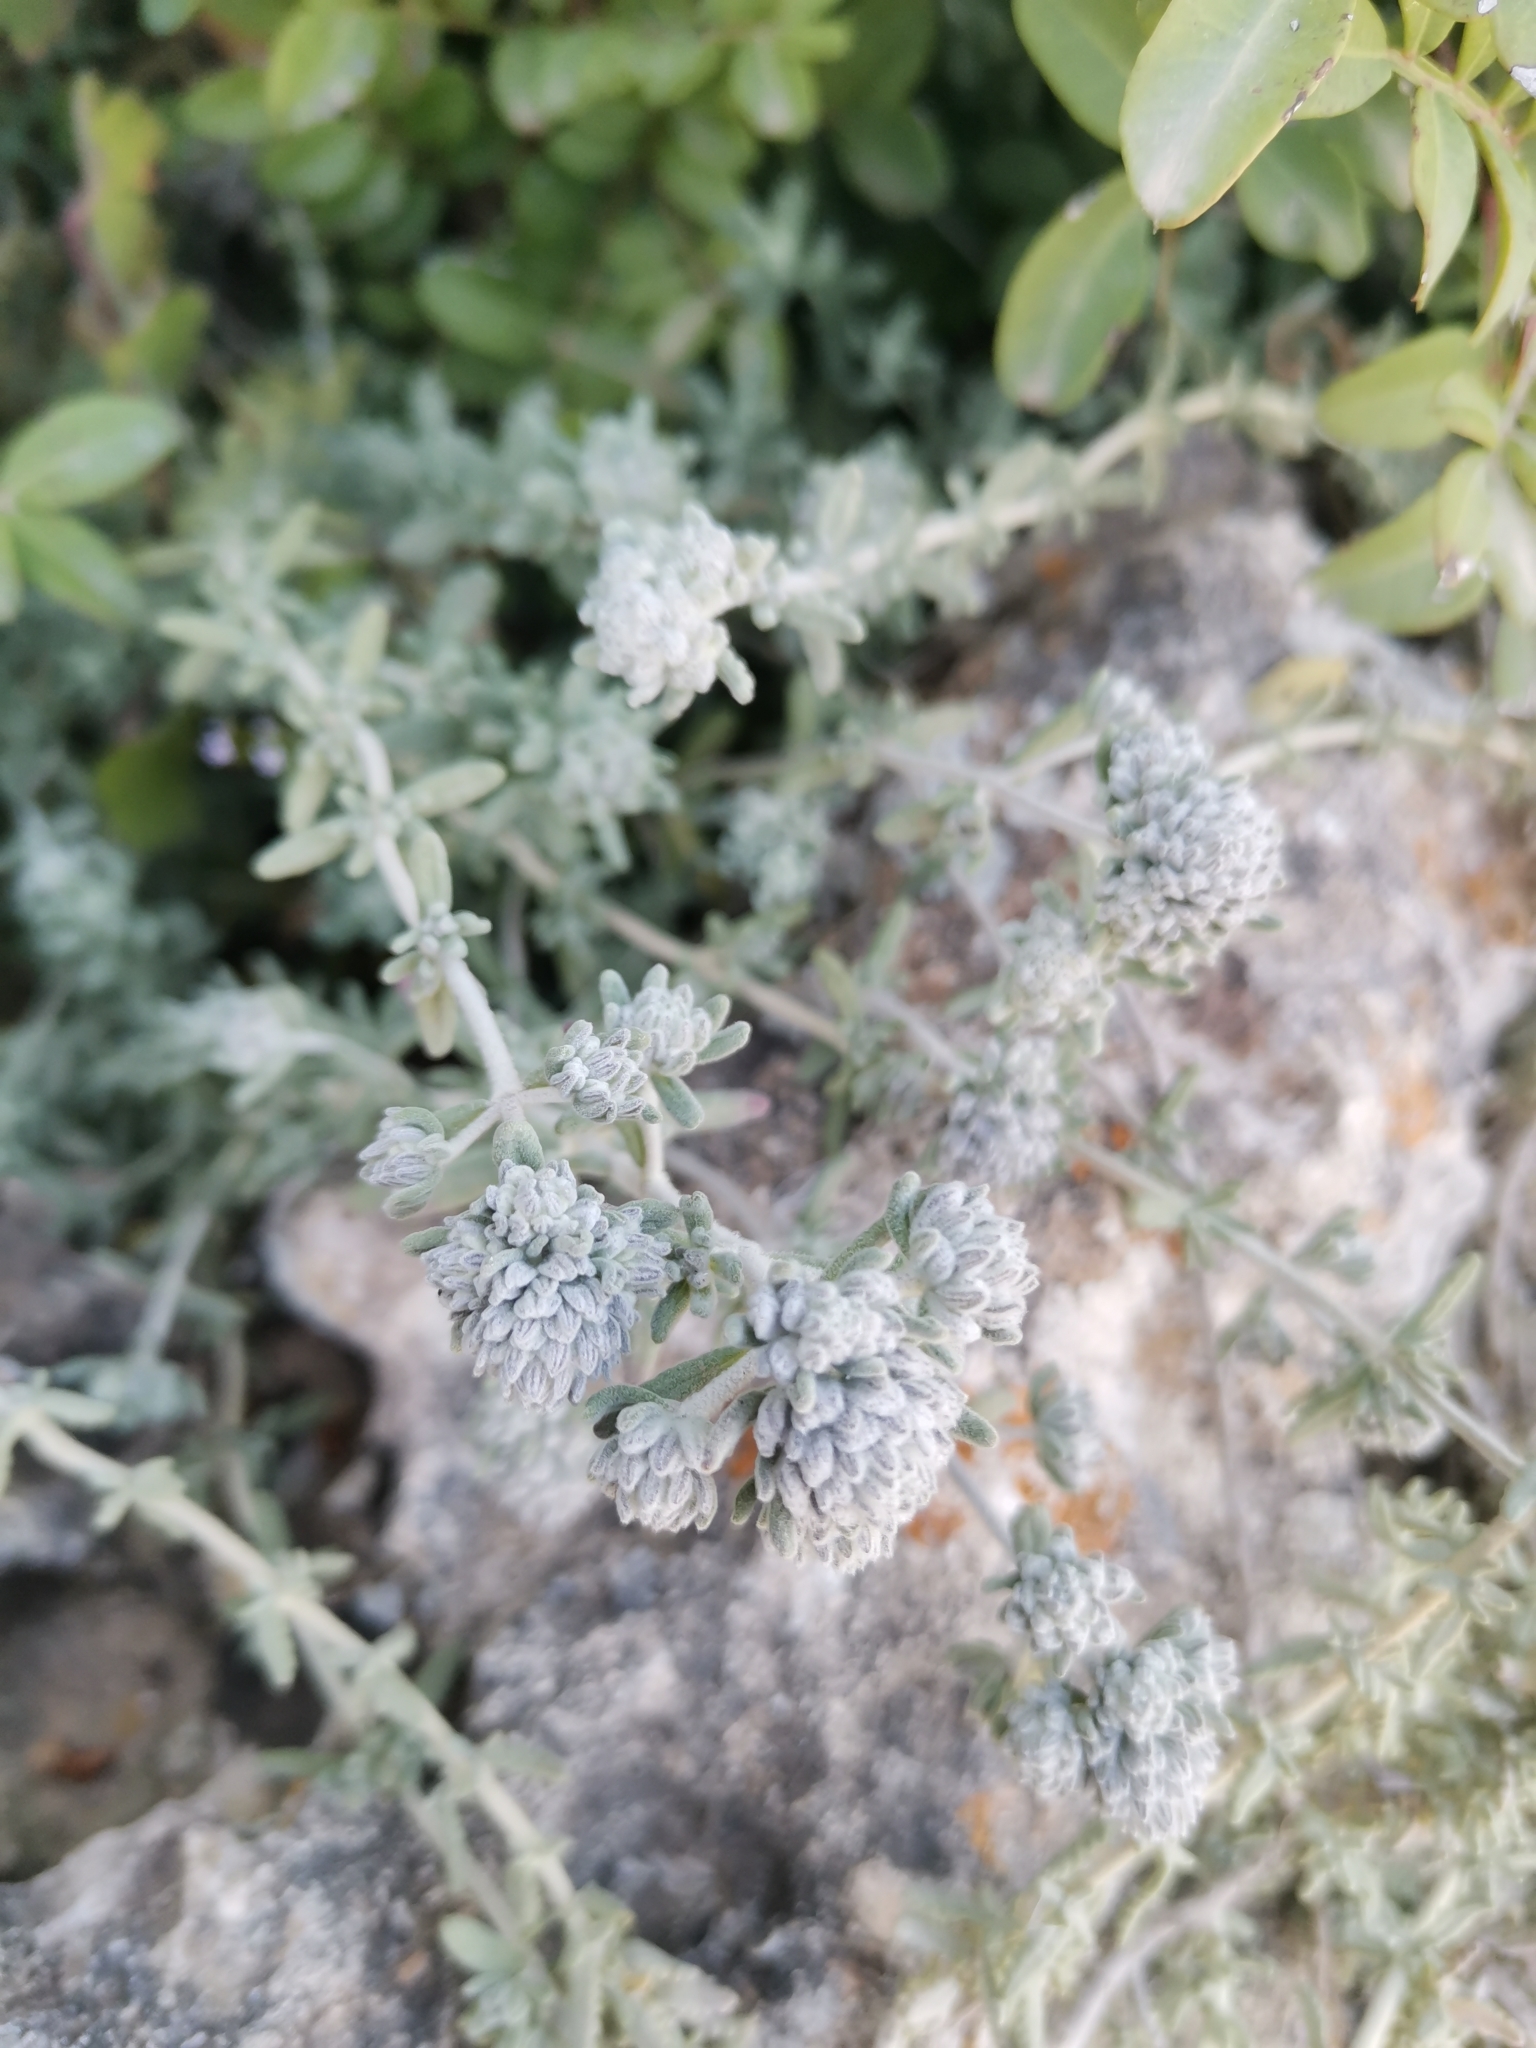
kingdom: Plantae
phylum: Tracheophyta
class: Magnoliopsida
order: Lamiales
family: Lamiaceae
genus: Teucrium
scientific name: Teucrium capitatum
